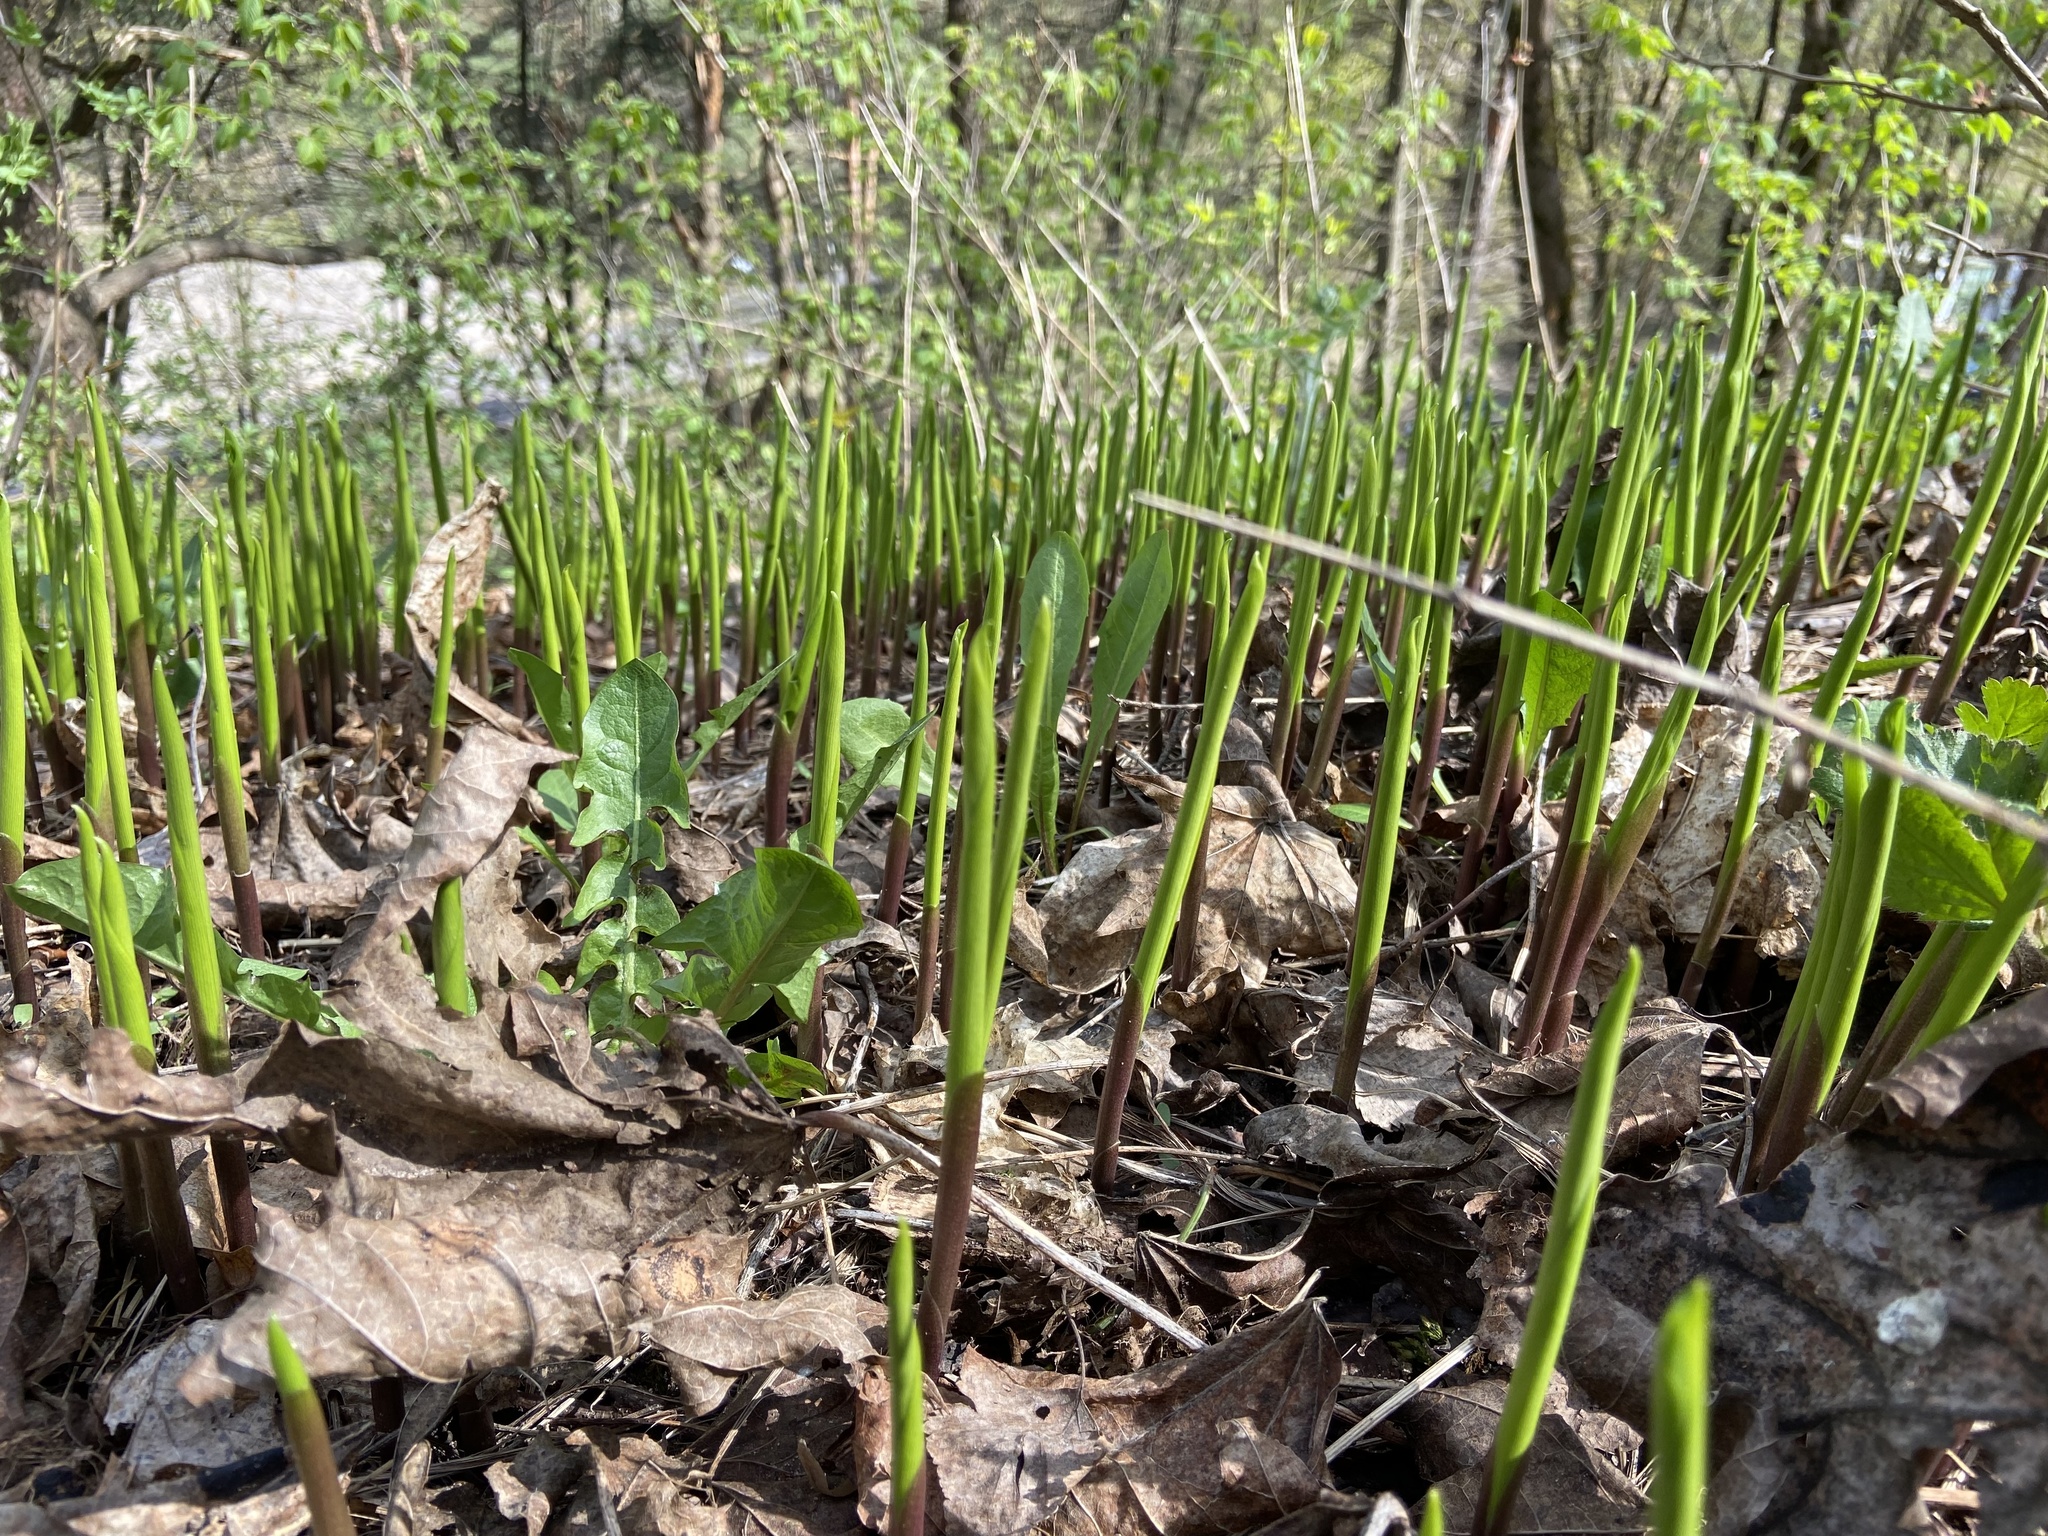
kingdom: Plantae
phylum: Tracheophyta
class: Liliopsida
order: Asparagales
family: Asparagaceae
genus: Convallaria
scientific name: Convallaria majalis
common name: Lily-of-the-valley
